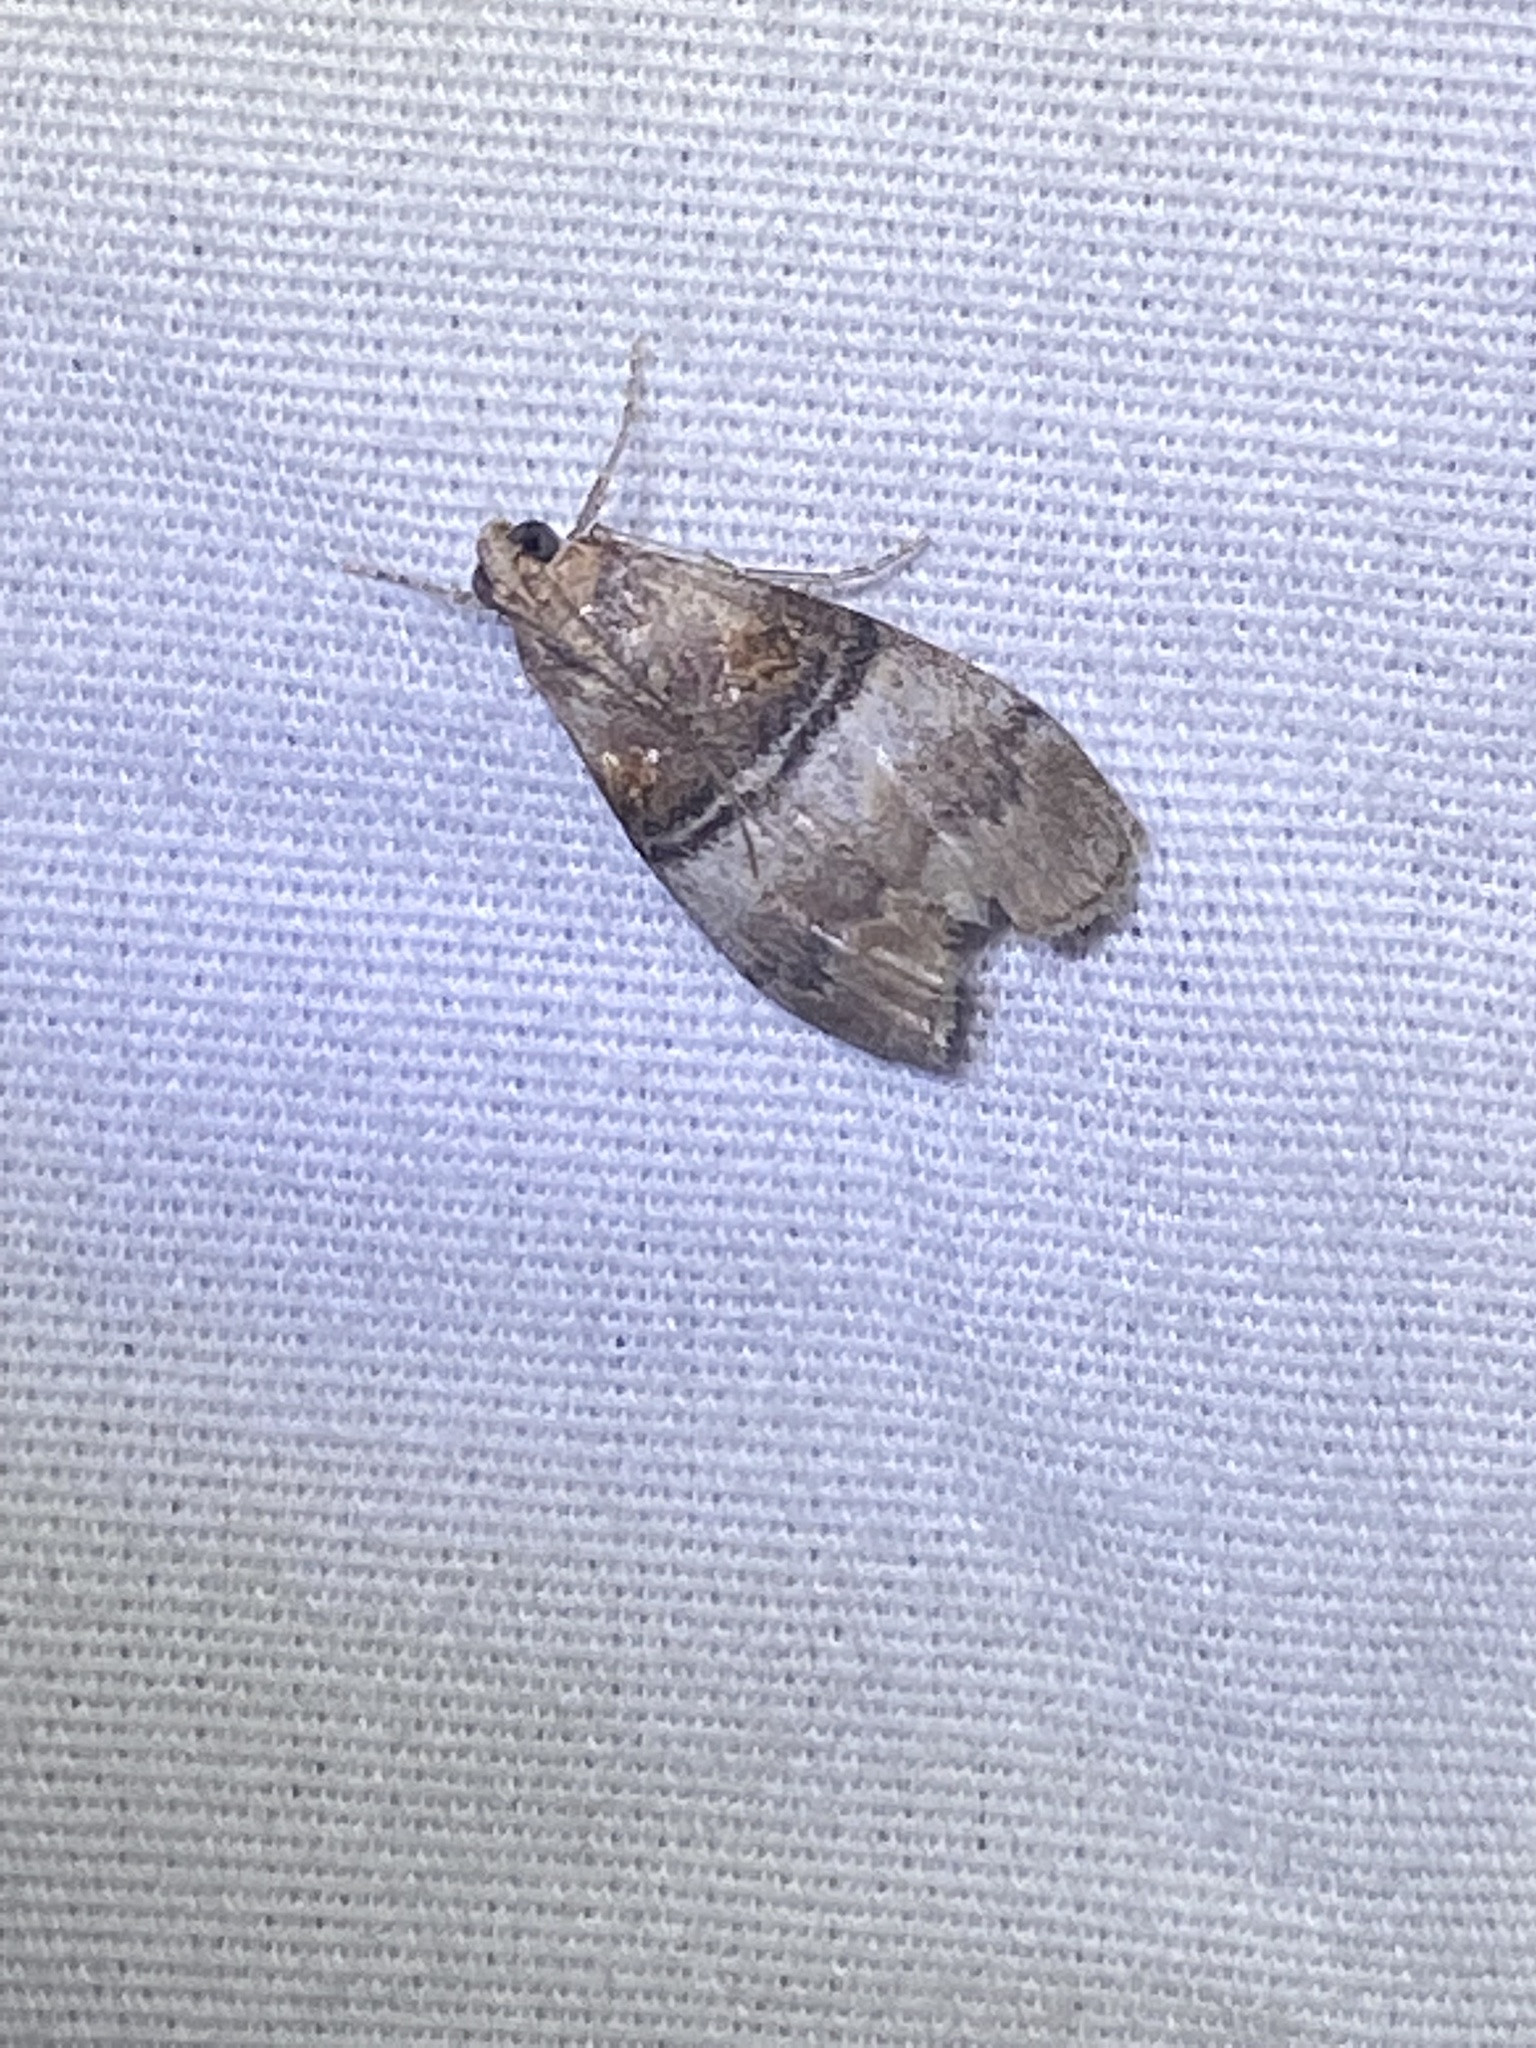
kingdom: Animalia
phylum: Arthropoda
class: Insecta
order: Lepidoptera
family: Pyralidae
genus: Pococera
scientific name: Pococera militella
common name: Sycamore webworm moth
